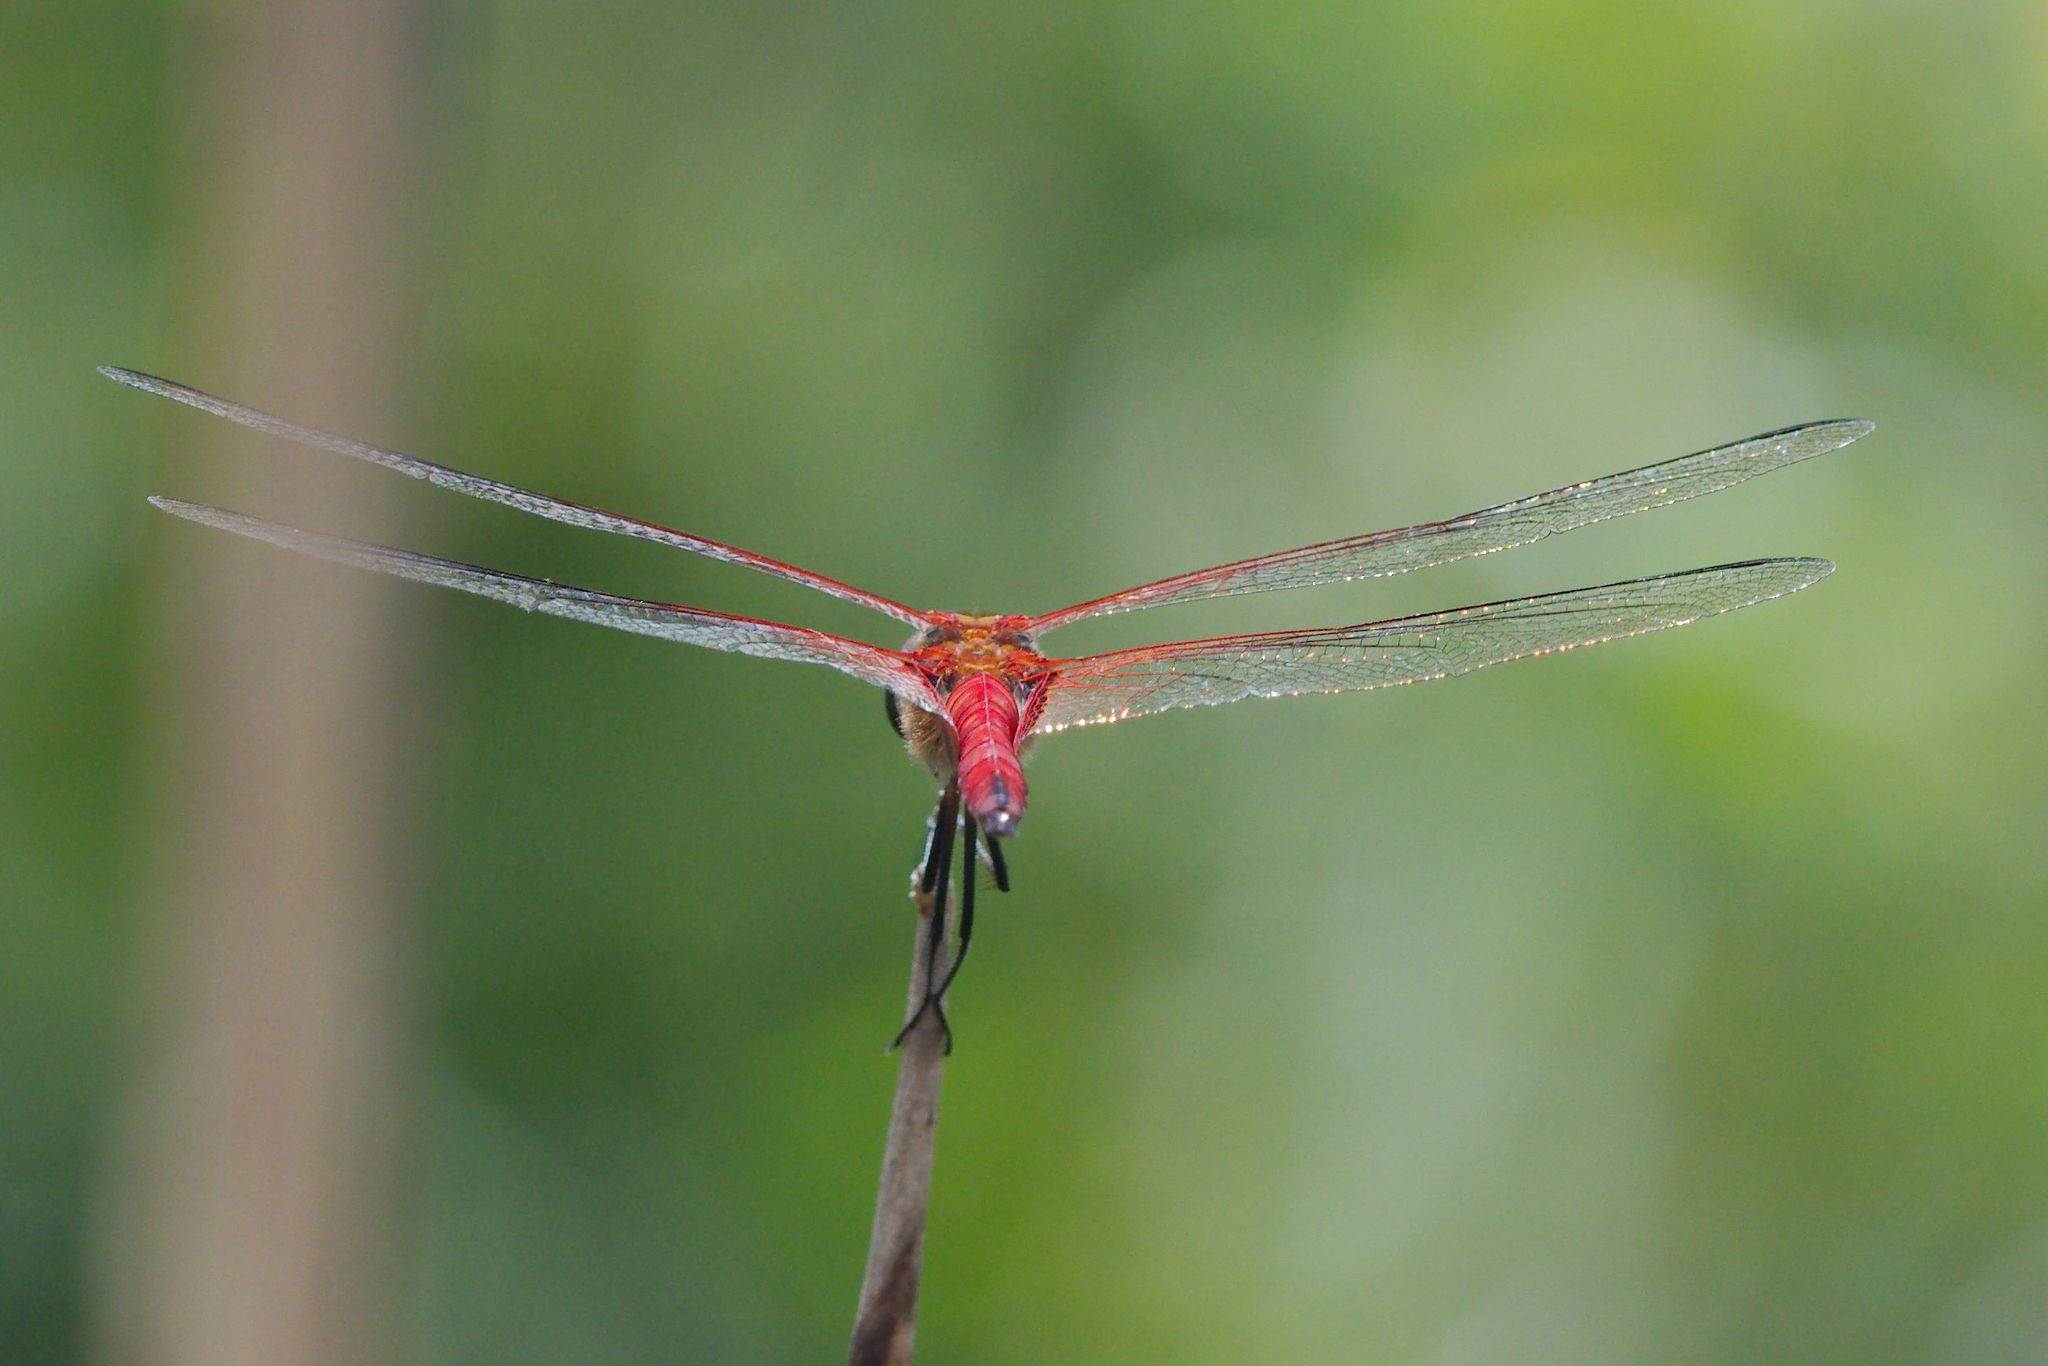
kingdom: Animalia
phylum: Arthropoda
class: Insecta
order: Odonata
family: Libellulidae
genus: Tramea
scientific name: Tramea abdominalis
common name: Vermilion saddlebags
